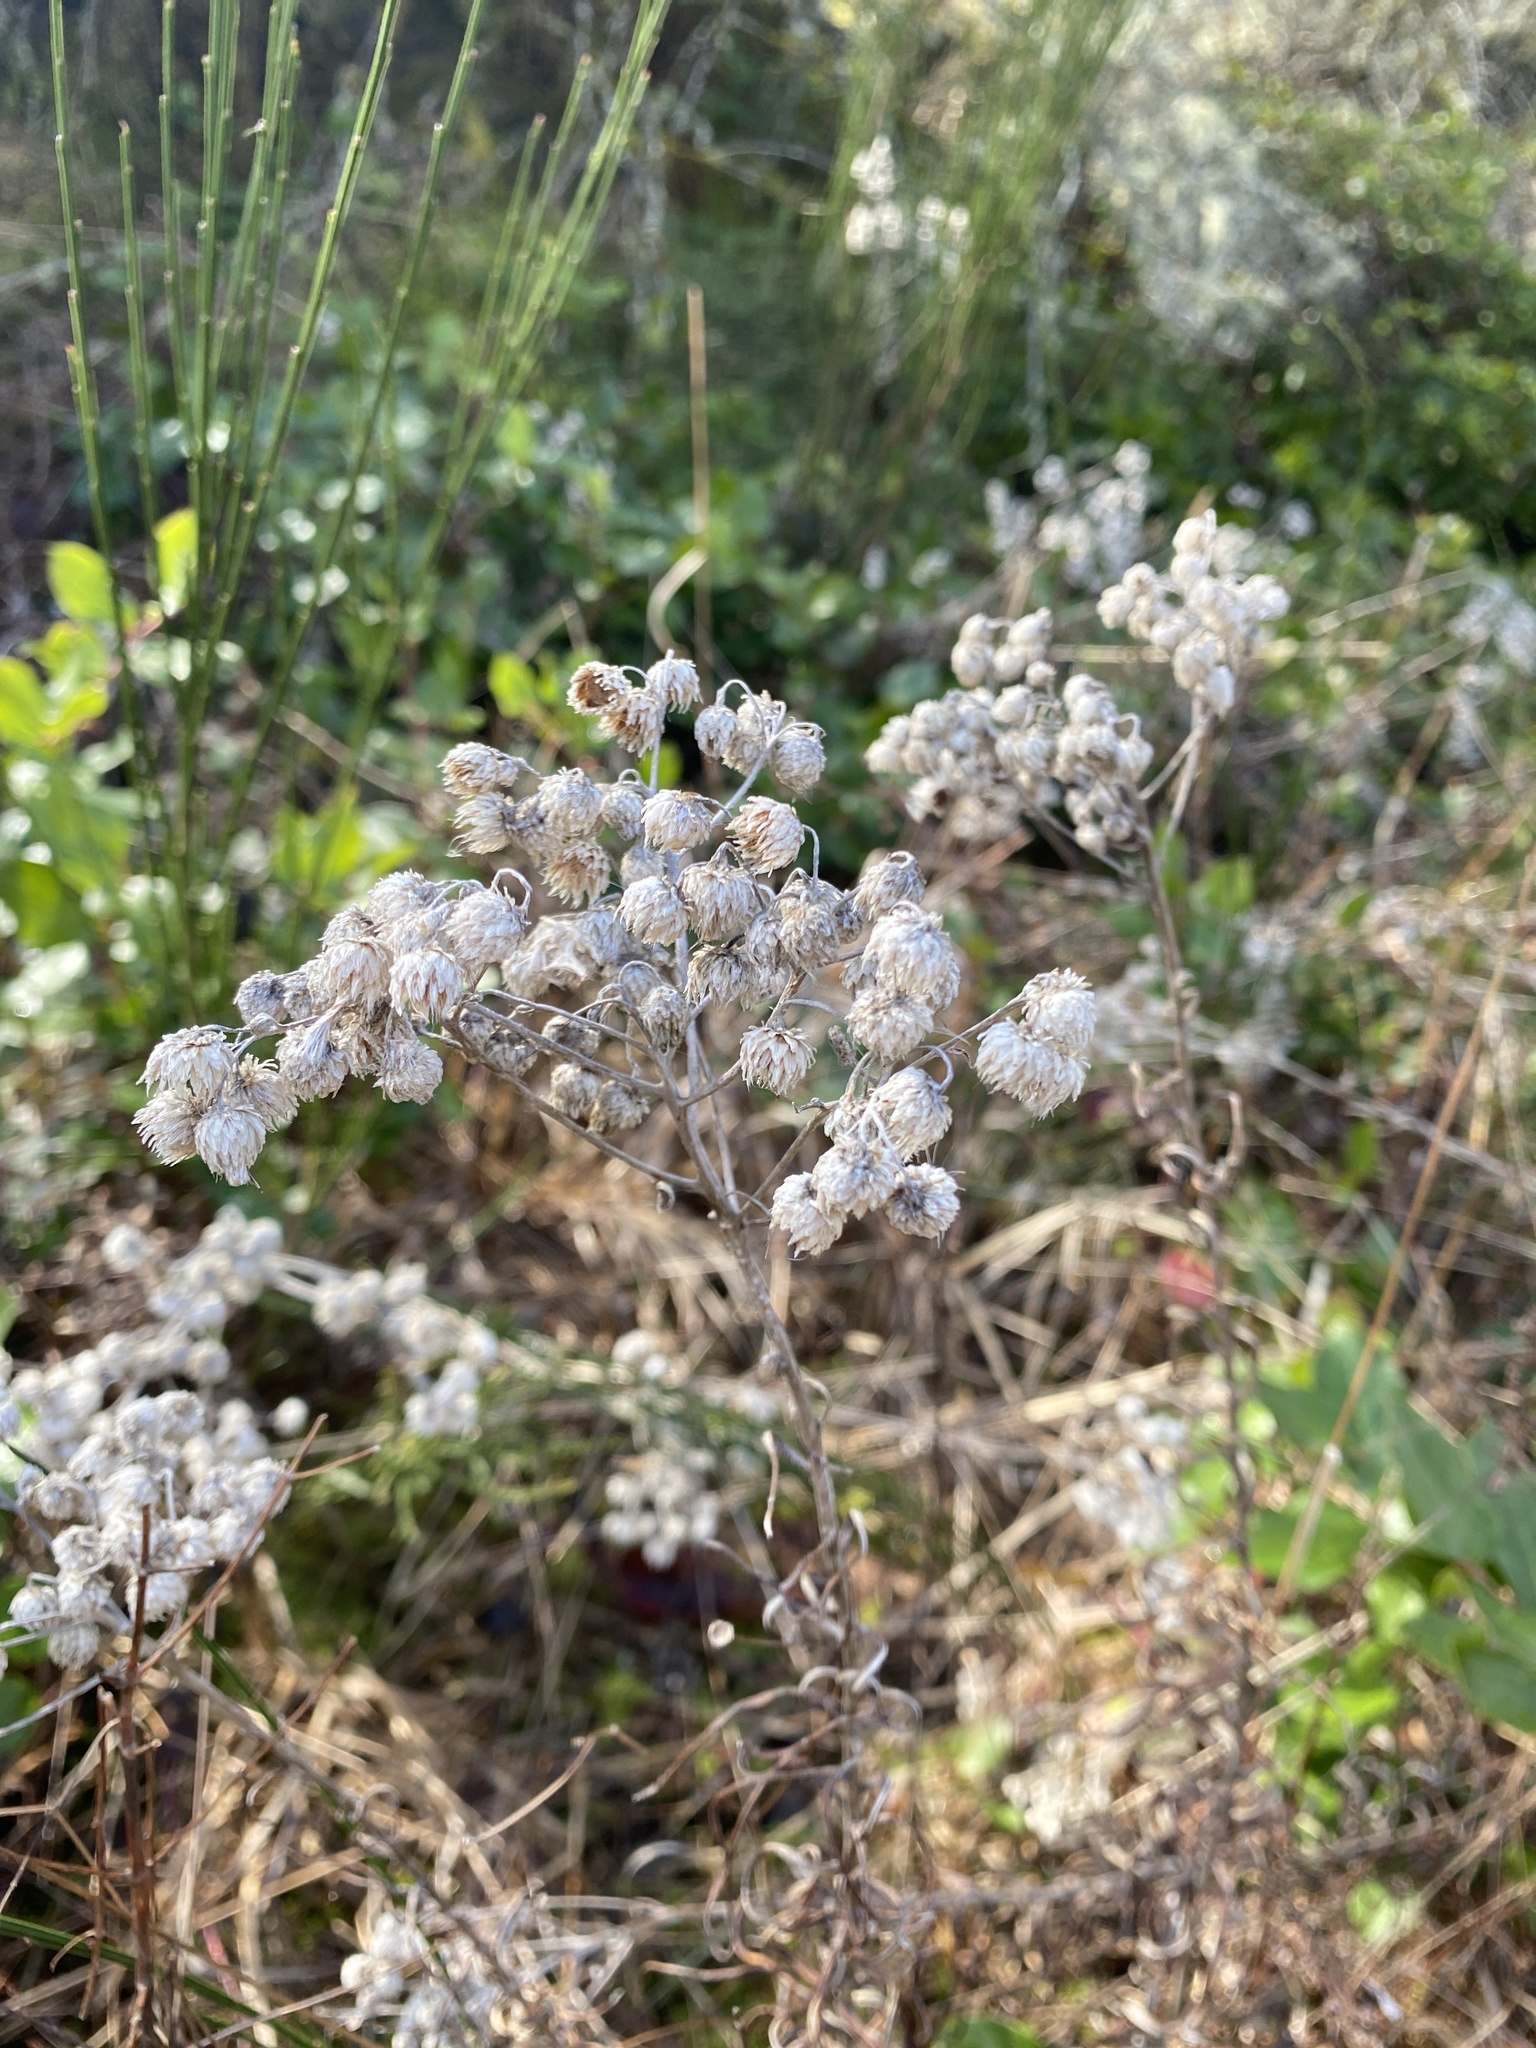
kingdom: Plantae
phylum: Tracheophyta
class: Magnoliopsida
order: Asterales
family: Asteraceae
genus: Anaphalis
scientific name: Anaphalis margaritacea
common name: Pearly everlasting
